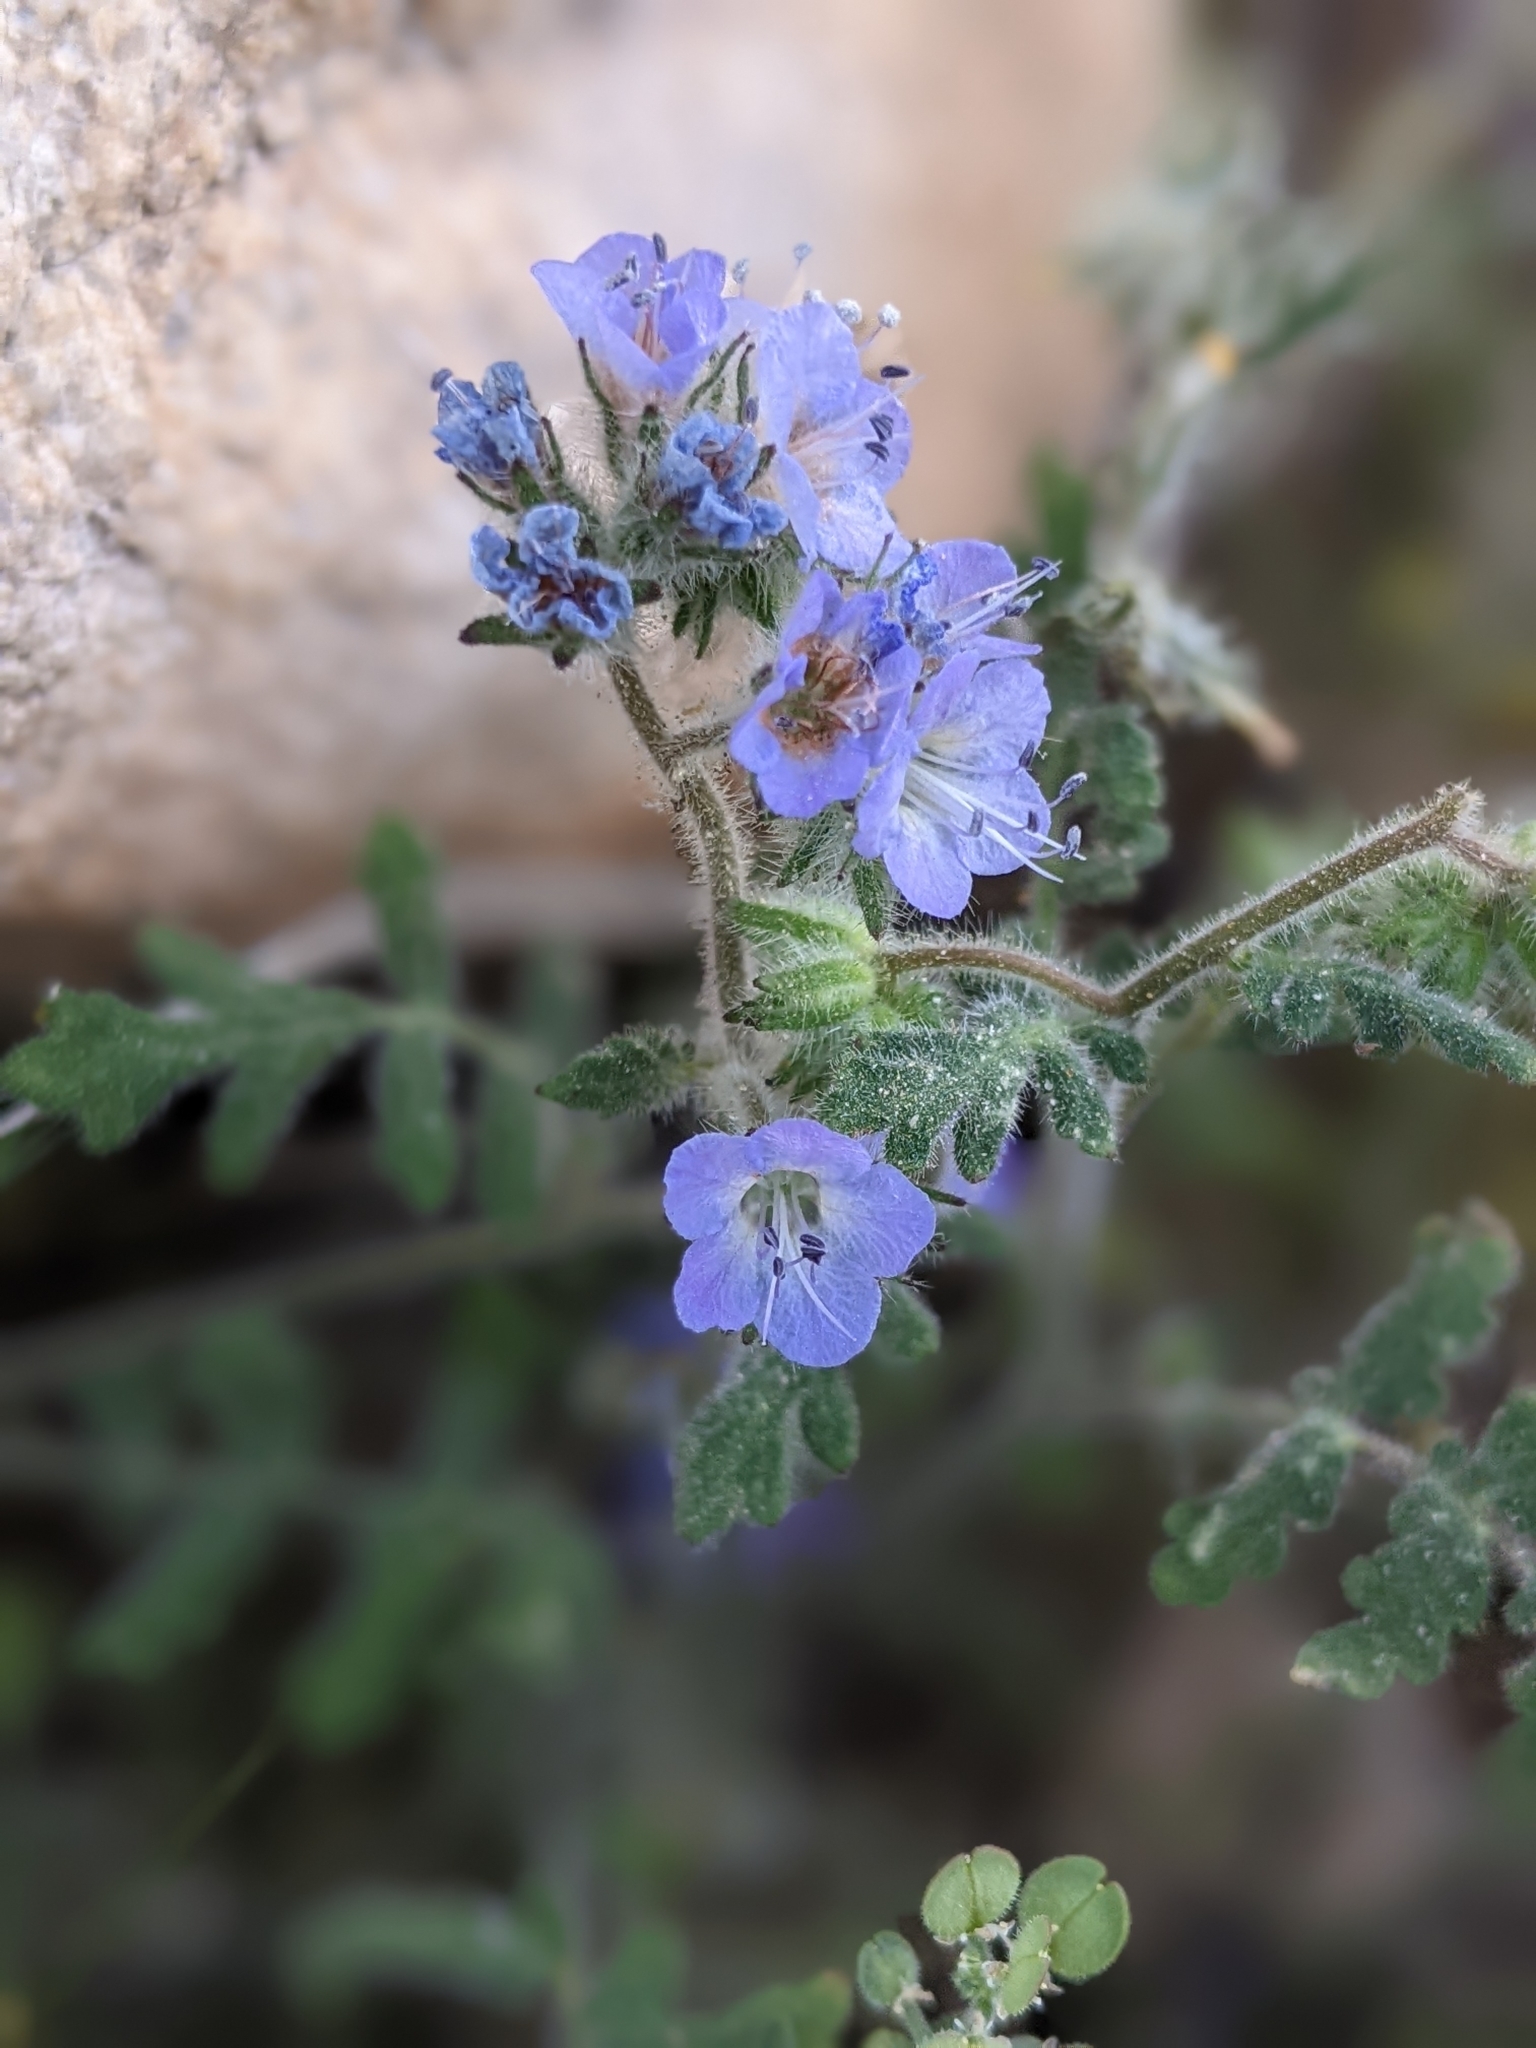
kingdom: Plantae
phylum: Tracheophyta
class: Magnoliopsida
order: Boraginales
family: Hydrophyllaceae
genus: Phacelia
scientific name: Phacelia distans
